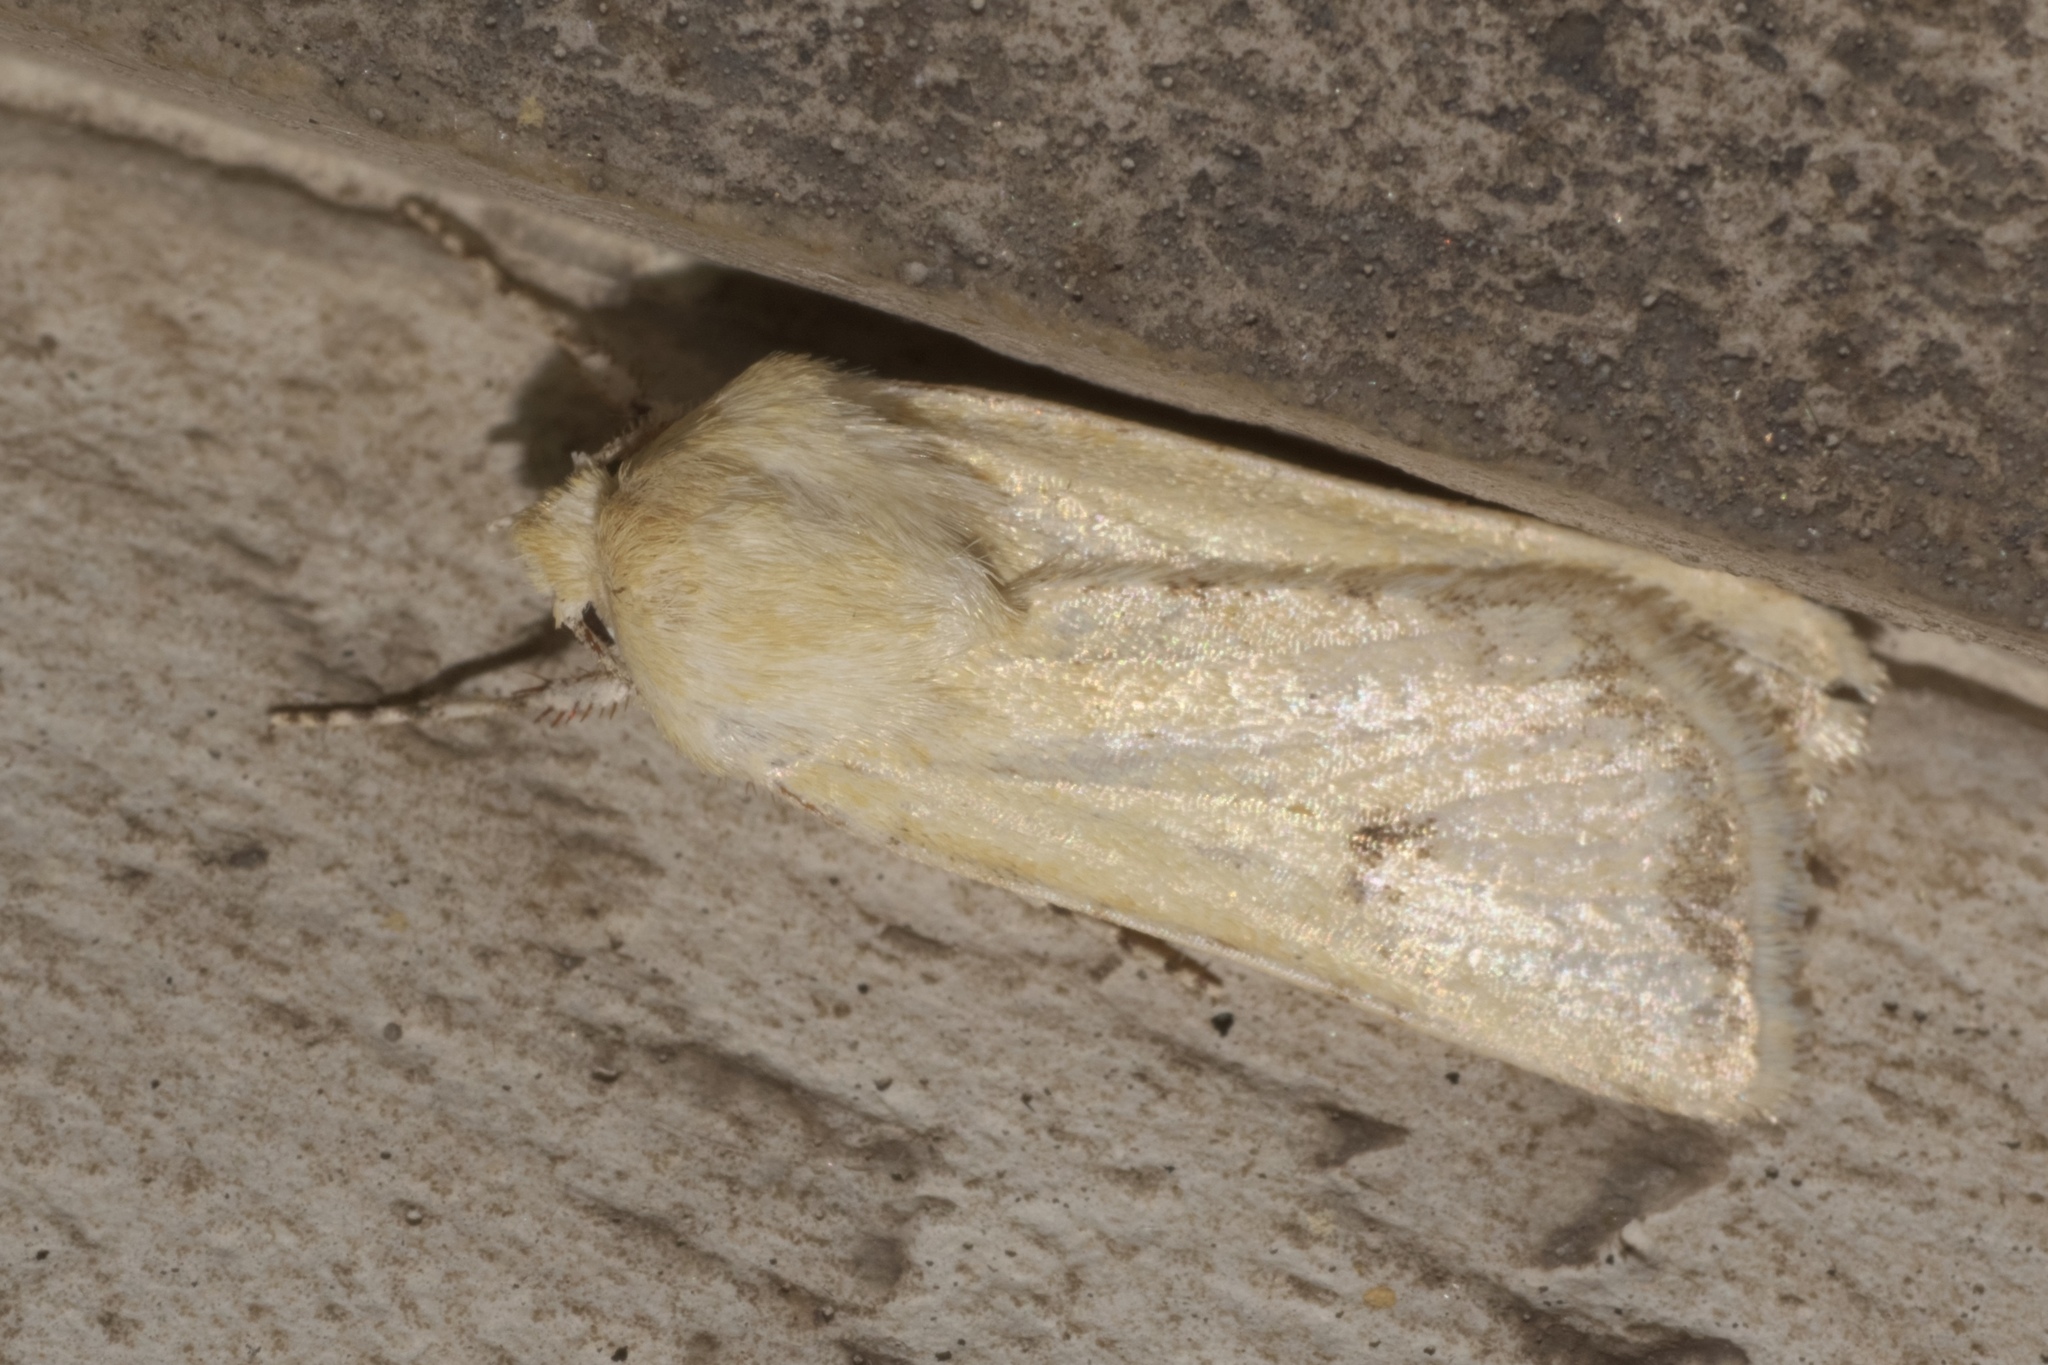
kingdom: Animalia
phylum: Arthropoda
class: Insecta
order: Lepidoptera
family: Noctuidae
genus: Helicoverpa
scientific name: Helicoverpa zea
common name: Bollworm
